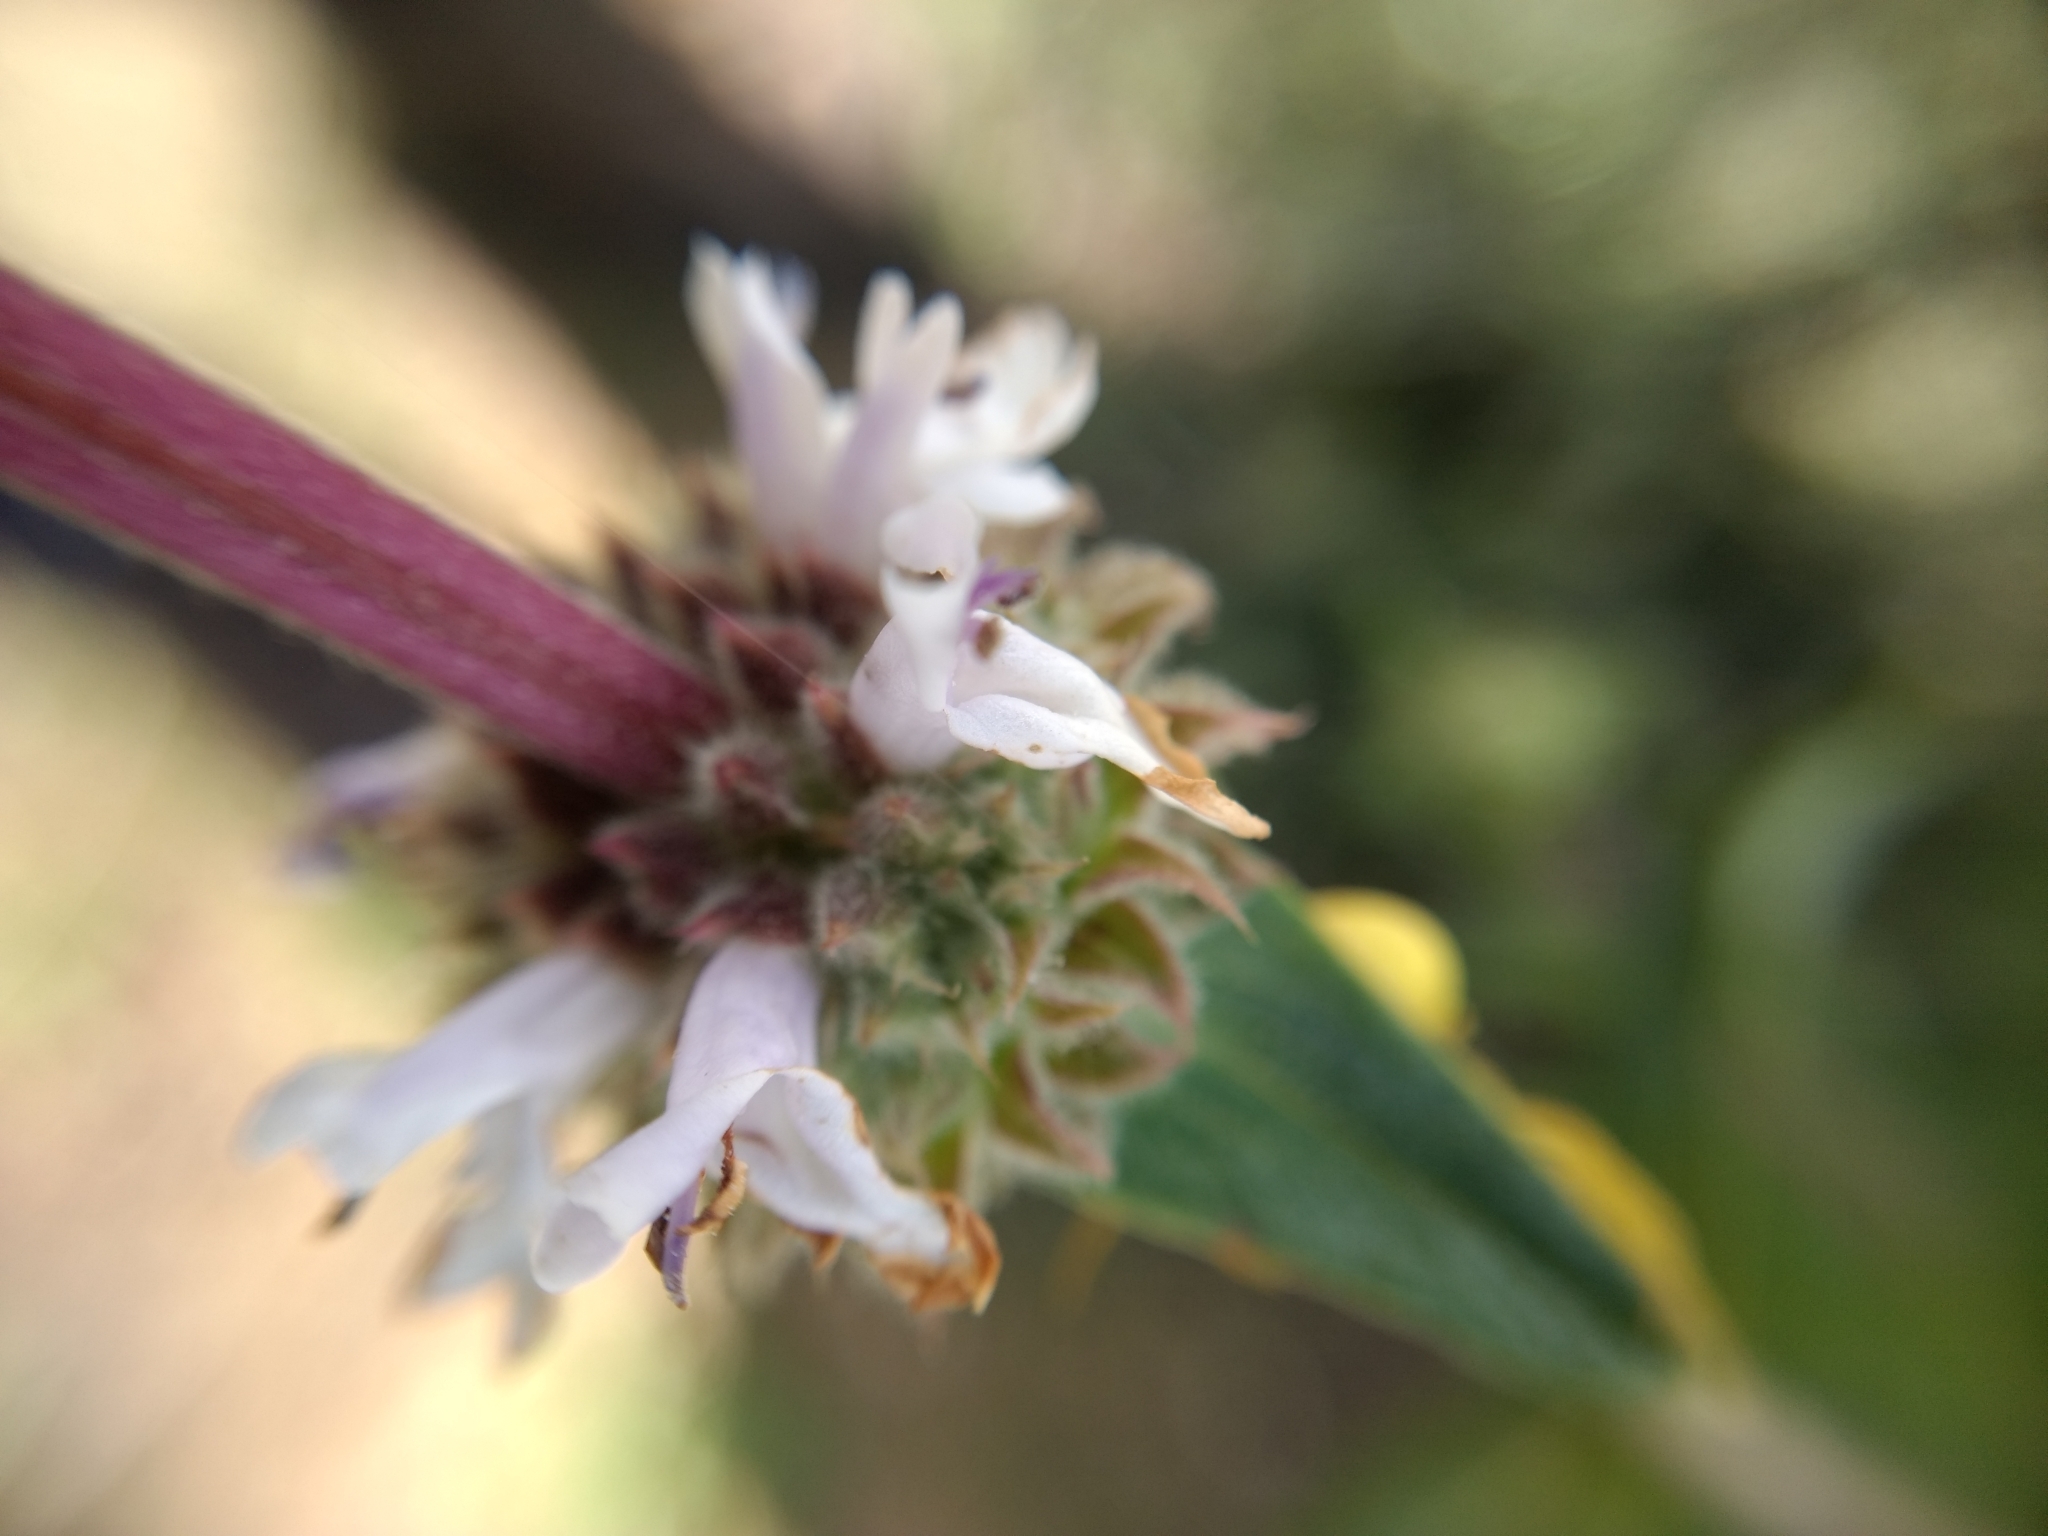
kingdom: Plantae
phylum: Tracheophyta
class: Magnoliopsida
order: Lamiales
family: Lamiaceae
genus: Salvia
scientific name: Salvia mellifera
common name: Black sage
